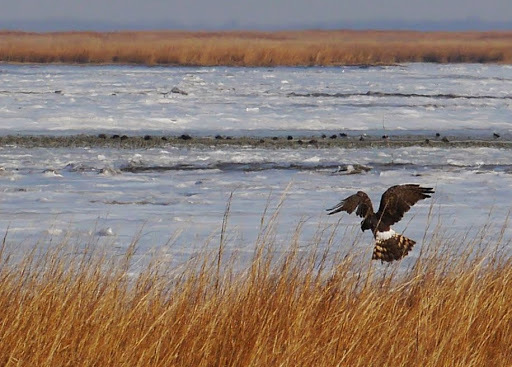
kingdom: Animalia
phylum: Chordata
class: Aves
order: Accipitriformes
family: Accipitridae
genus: Circus
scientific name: Circus cyaneus
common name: Hen harrier
